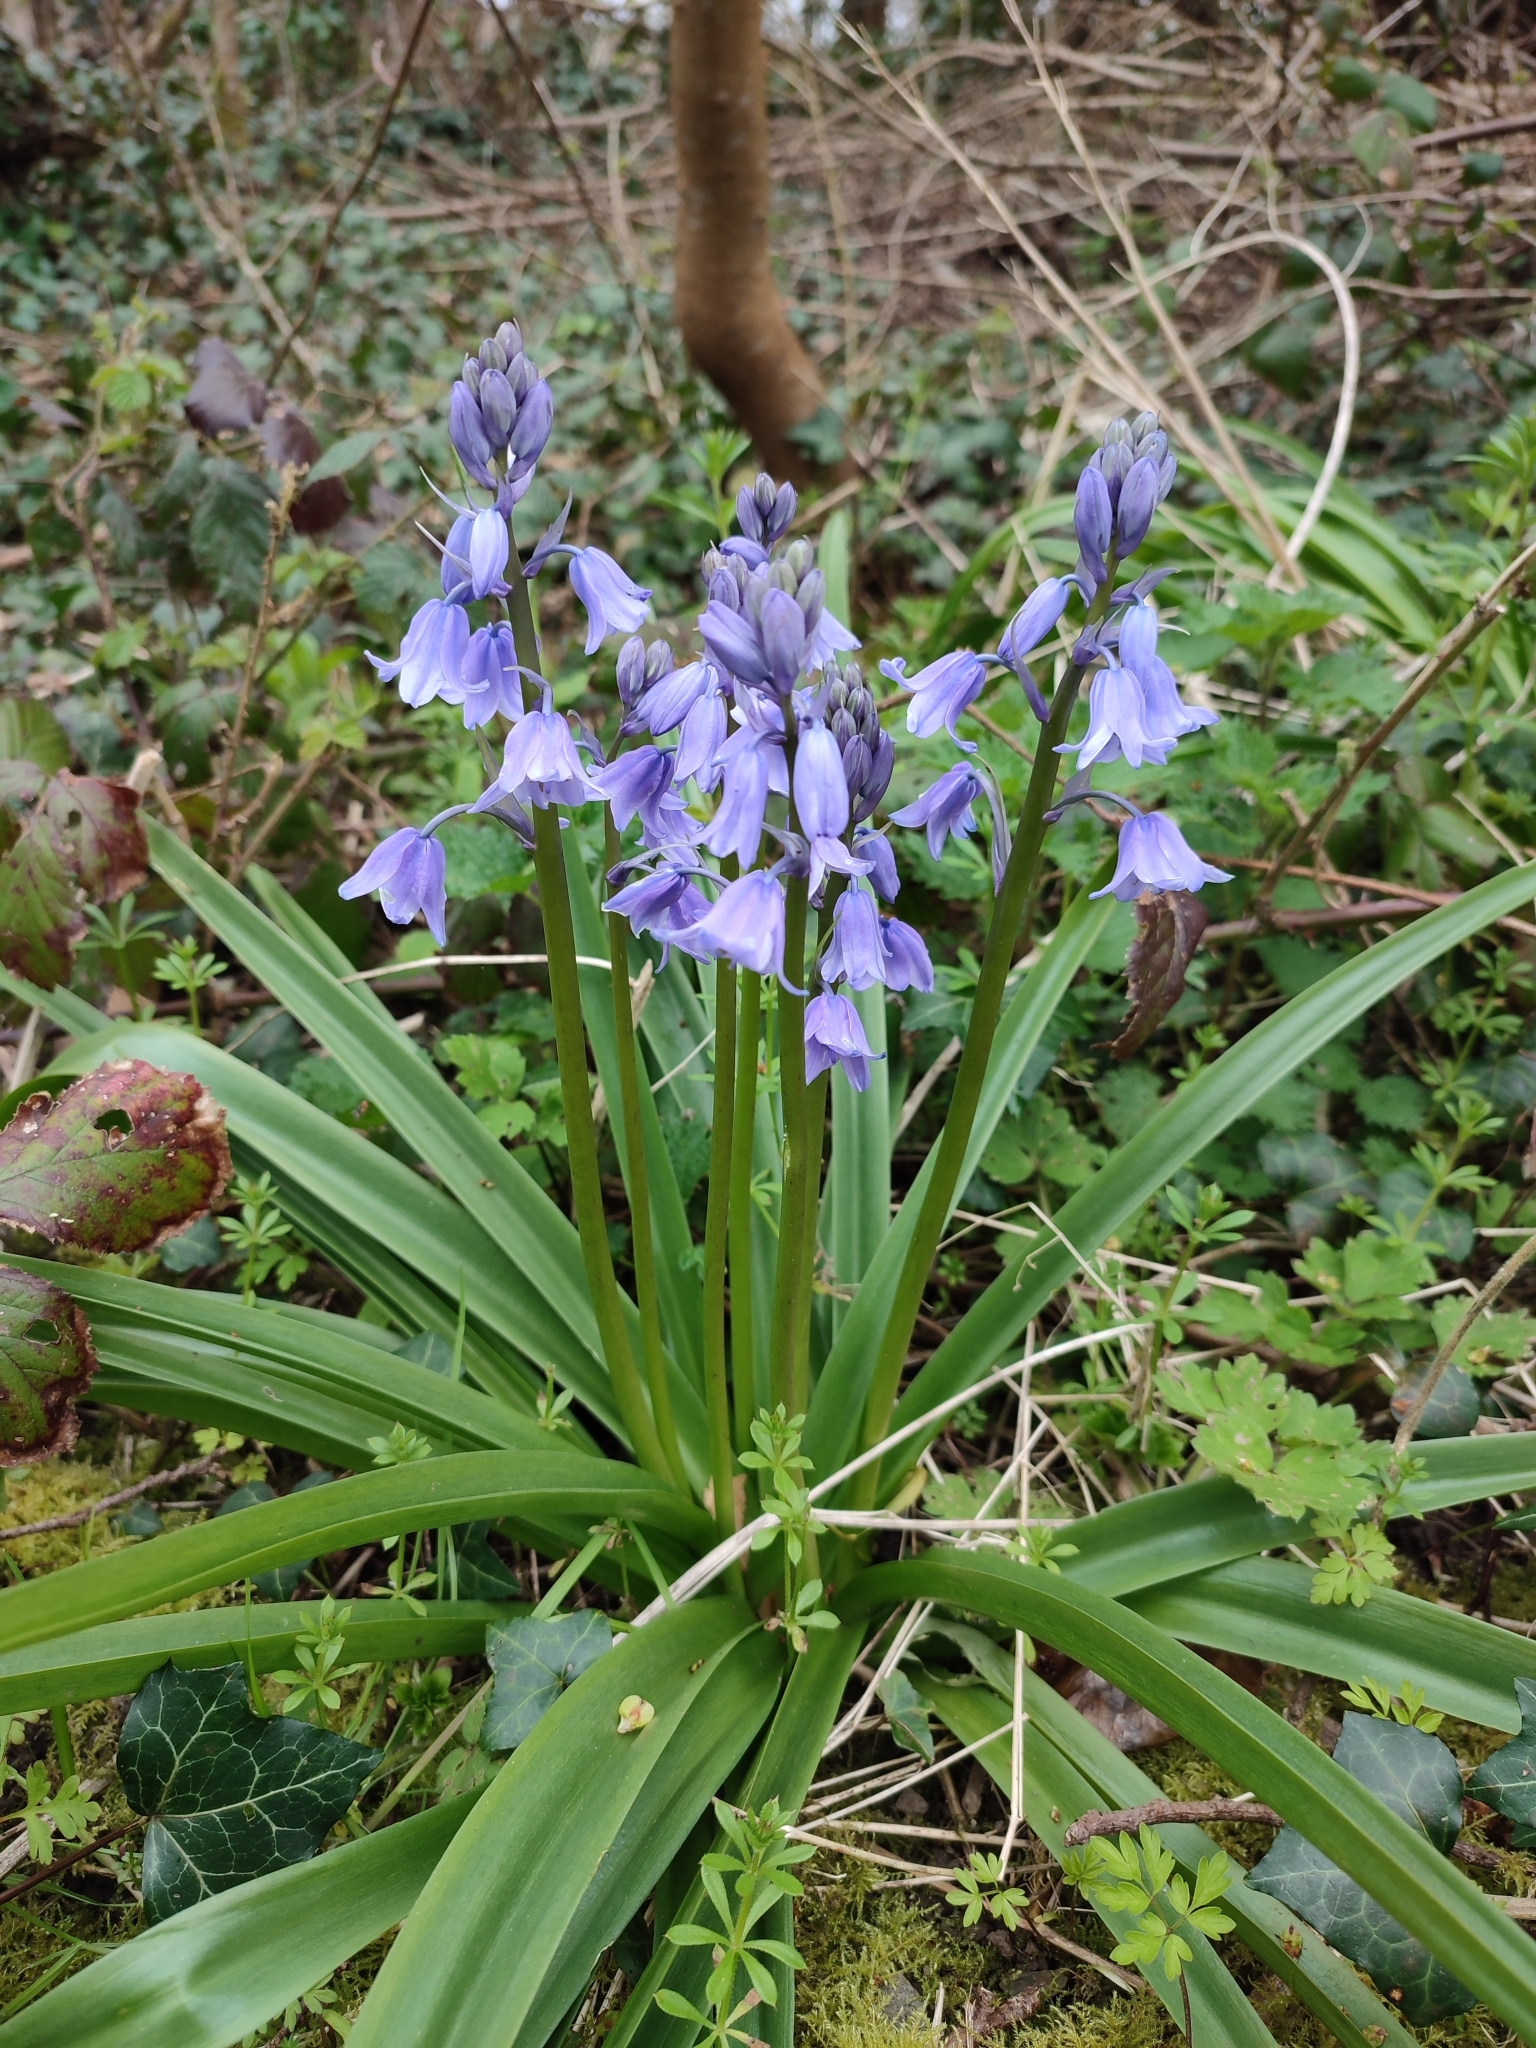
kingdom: Plantae
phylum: Tracheophyta
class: Liliopsida
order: Asparagales
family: Asparagaceae
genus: Hyacinthoides
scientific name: Hyacinthoides hispanica
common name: Spanish bluebell
